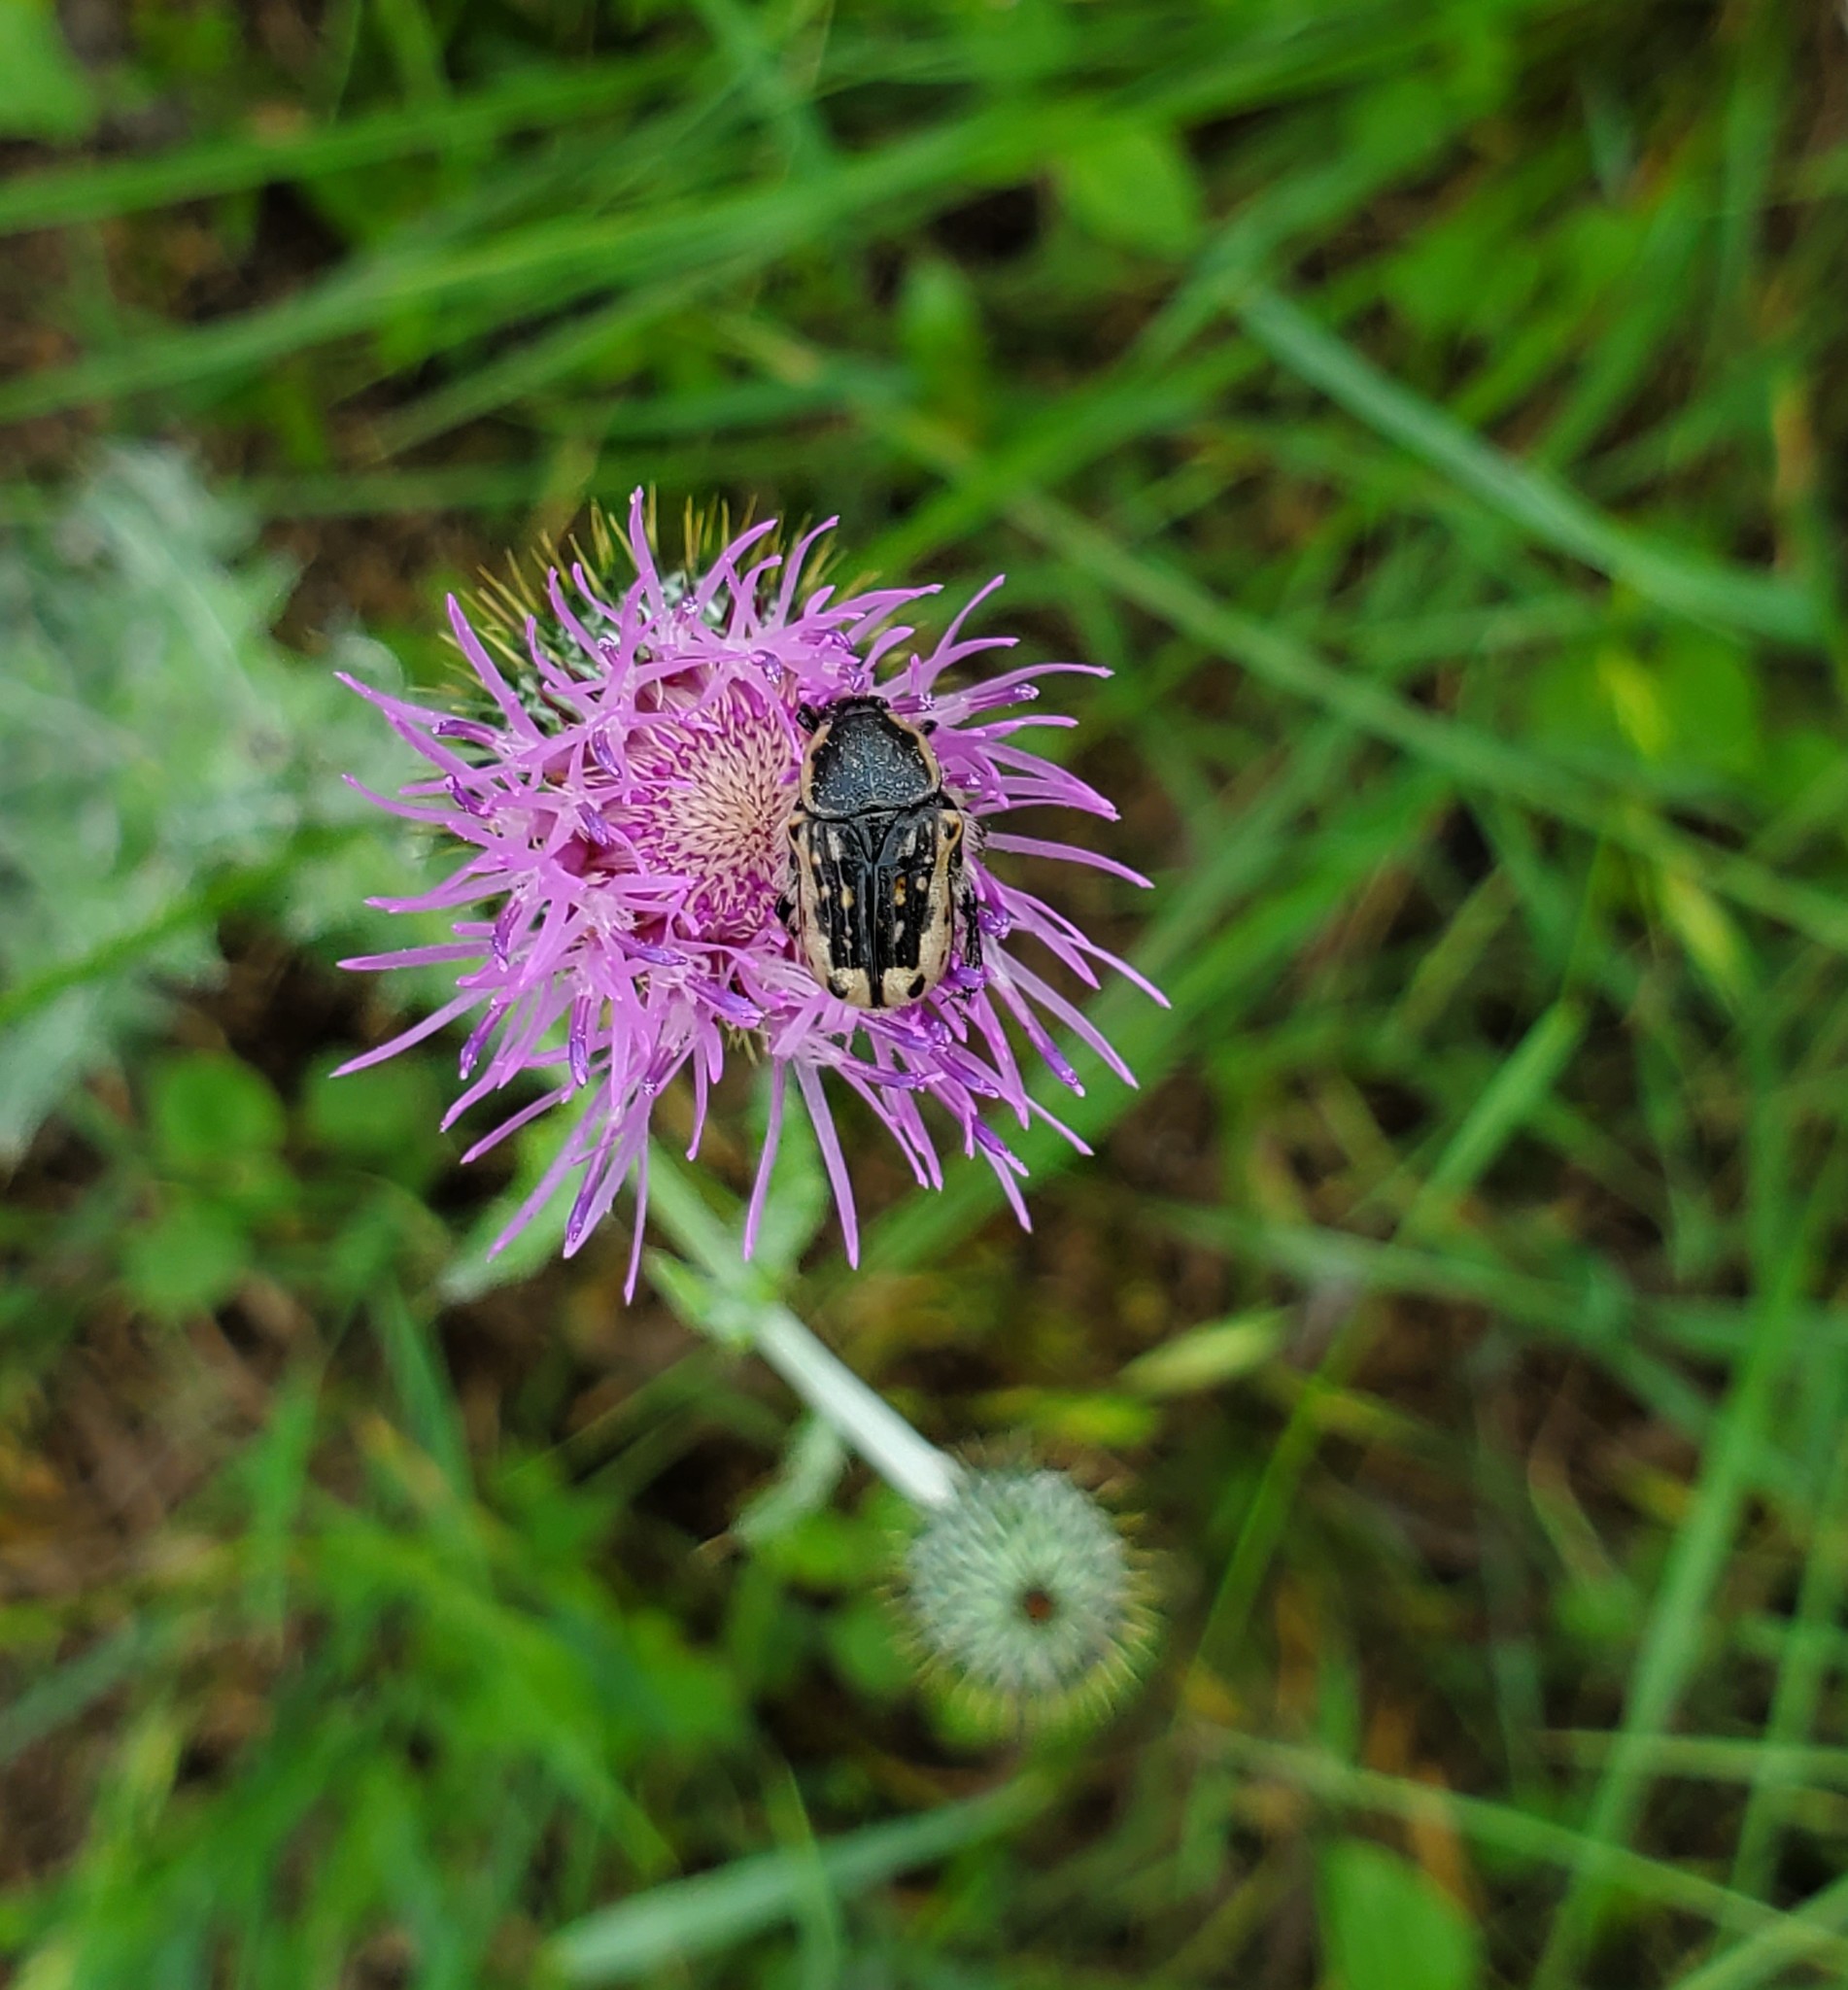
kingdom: Animalia
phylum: Arthropoda
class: Insecta
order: Coleoptera
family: Scarabaeidae
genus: Euphoria
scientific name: Euphoria kernii
